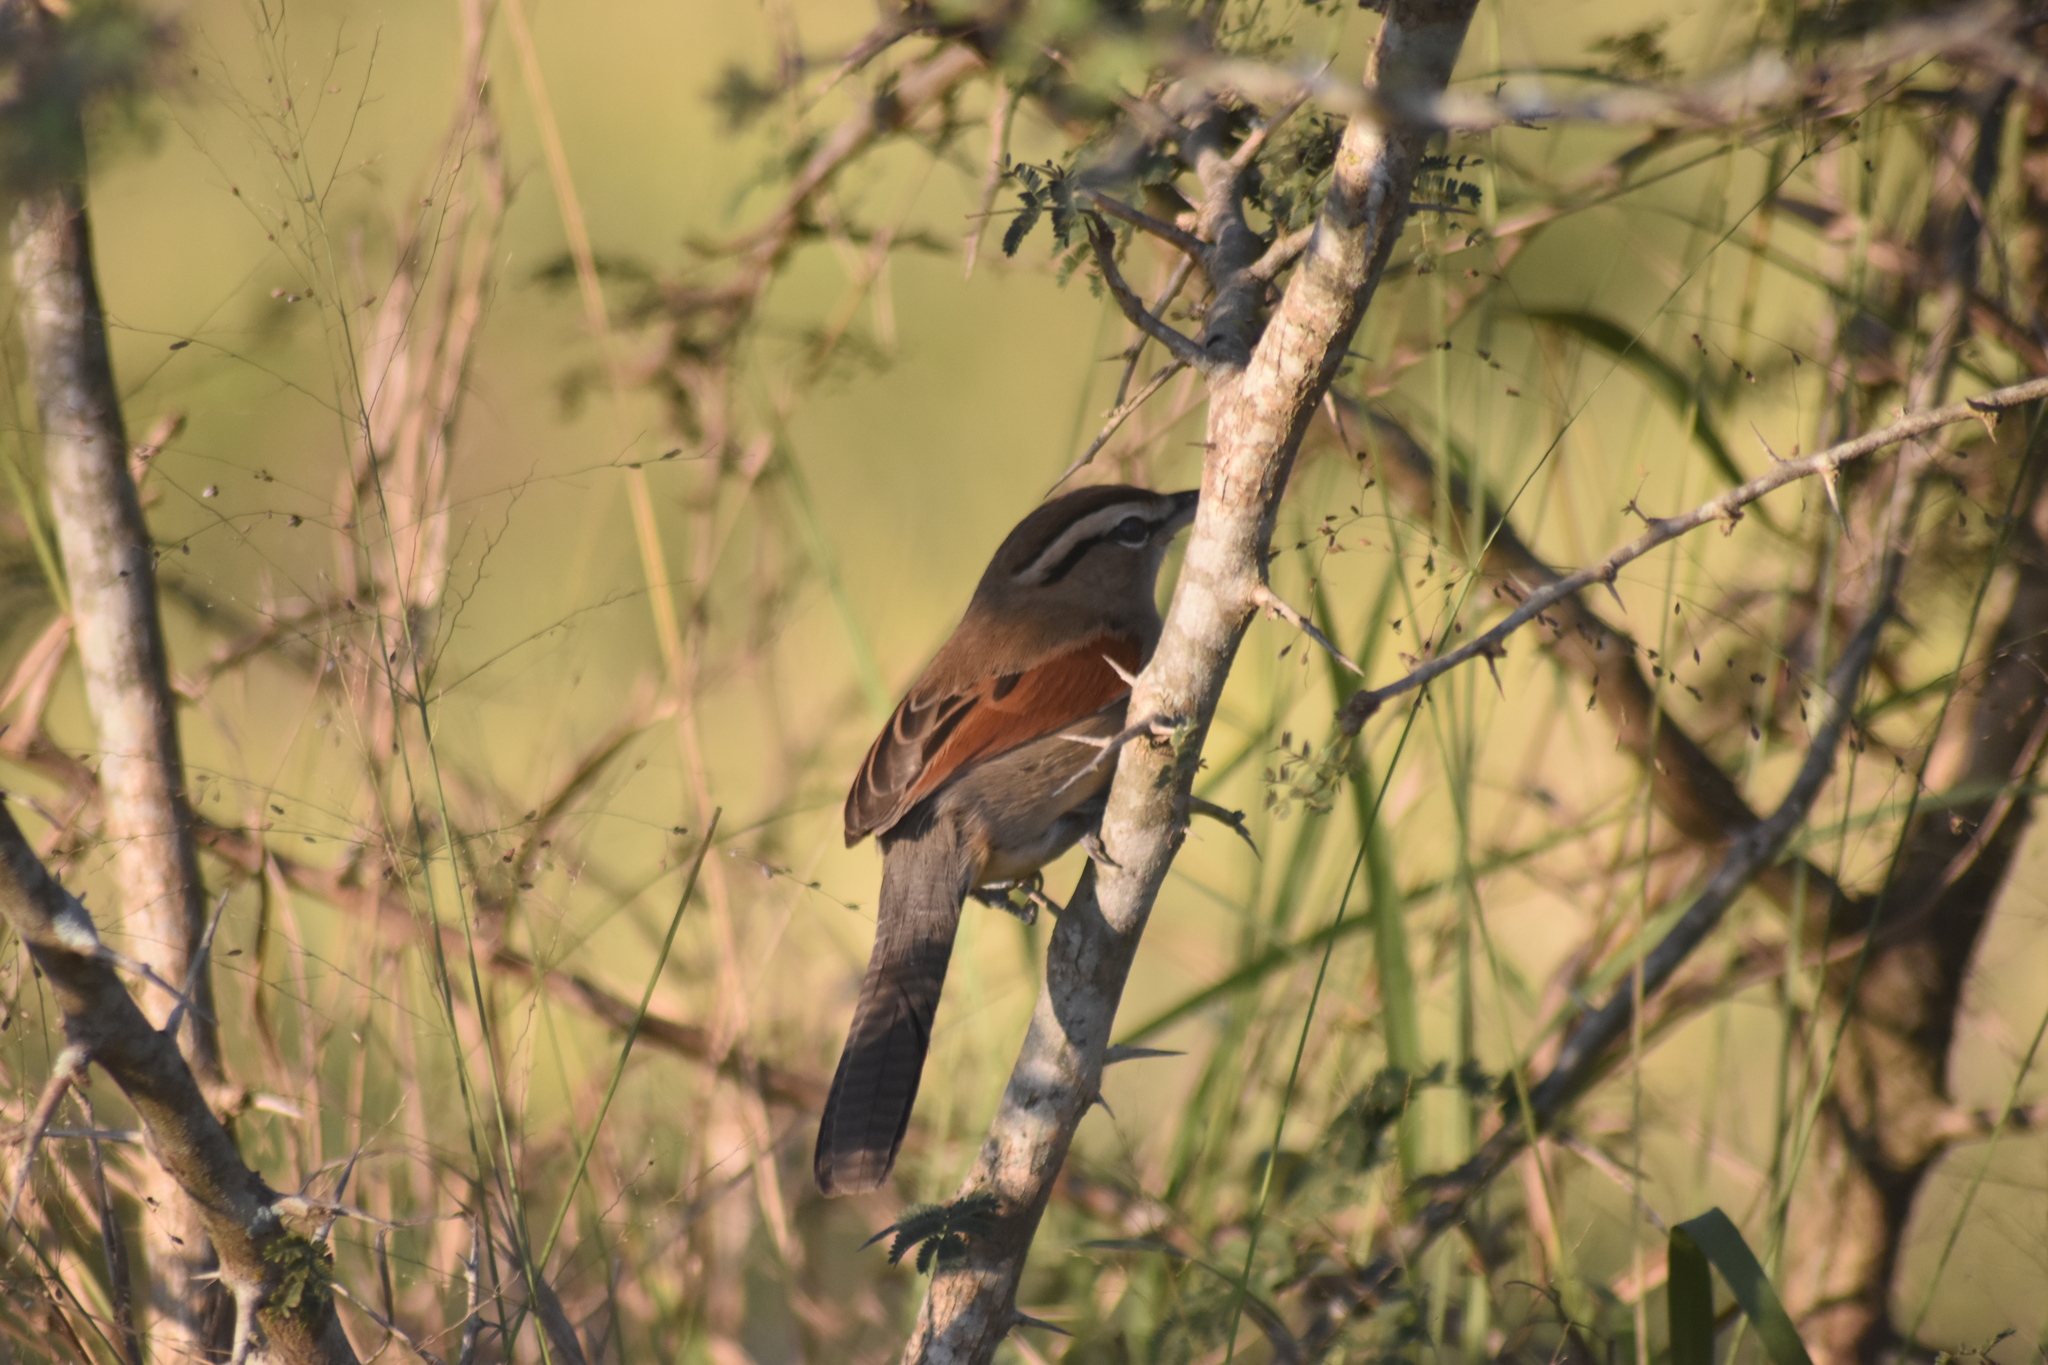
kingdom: Animalia
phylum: Chordata
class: Aves
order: Passeriformes
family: Malaconotidae
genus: Tchagra
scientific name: Tchagra australis
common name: Brown-crowned tchagra
